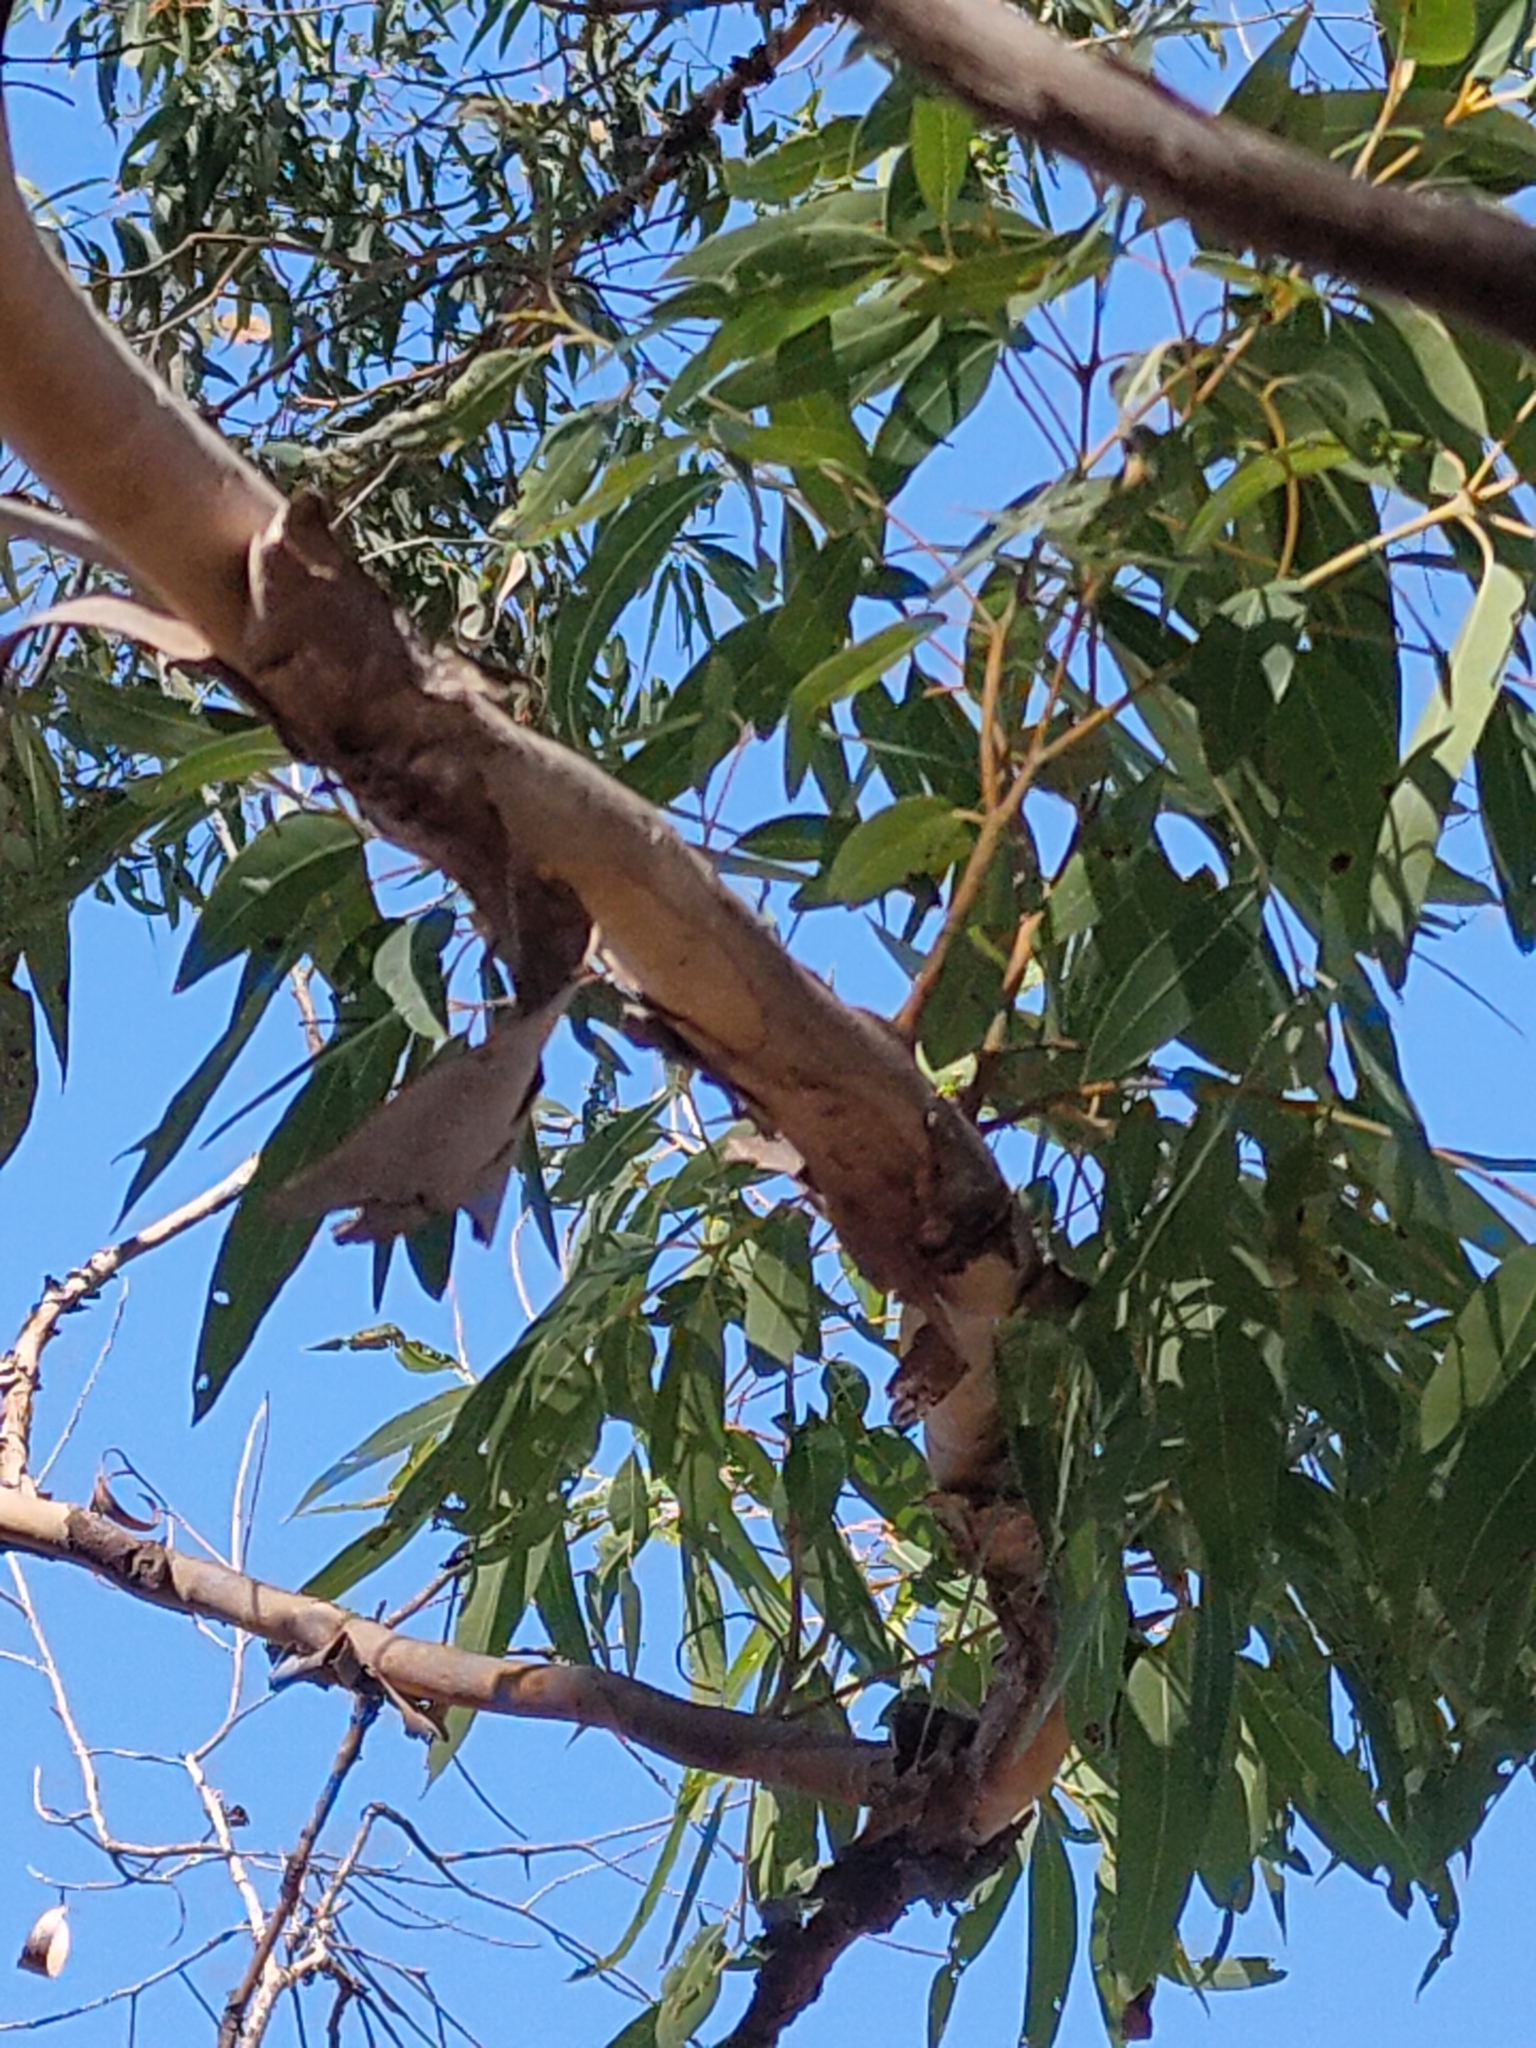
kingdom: Plantae
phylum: Tracheophyta
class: Magnoliopsida
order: Myrtales
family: Myrtaceae
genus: Corymbia
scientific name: Corymbia trachyphloia
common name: Brown-bloodwood
